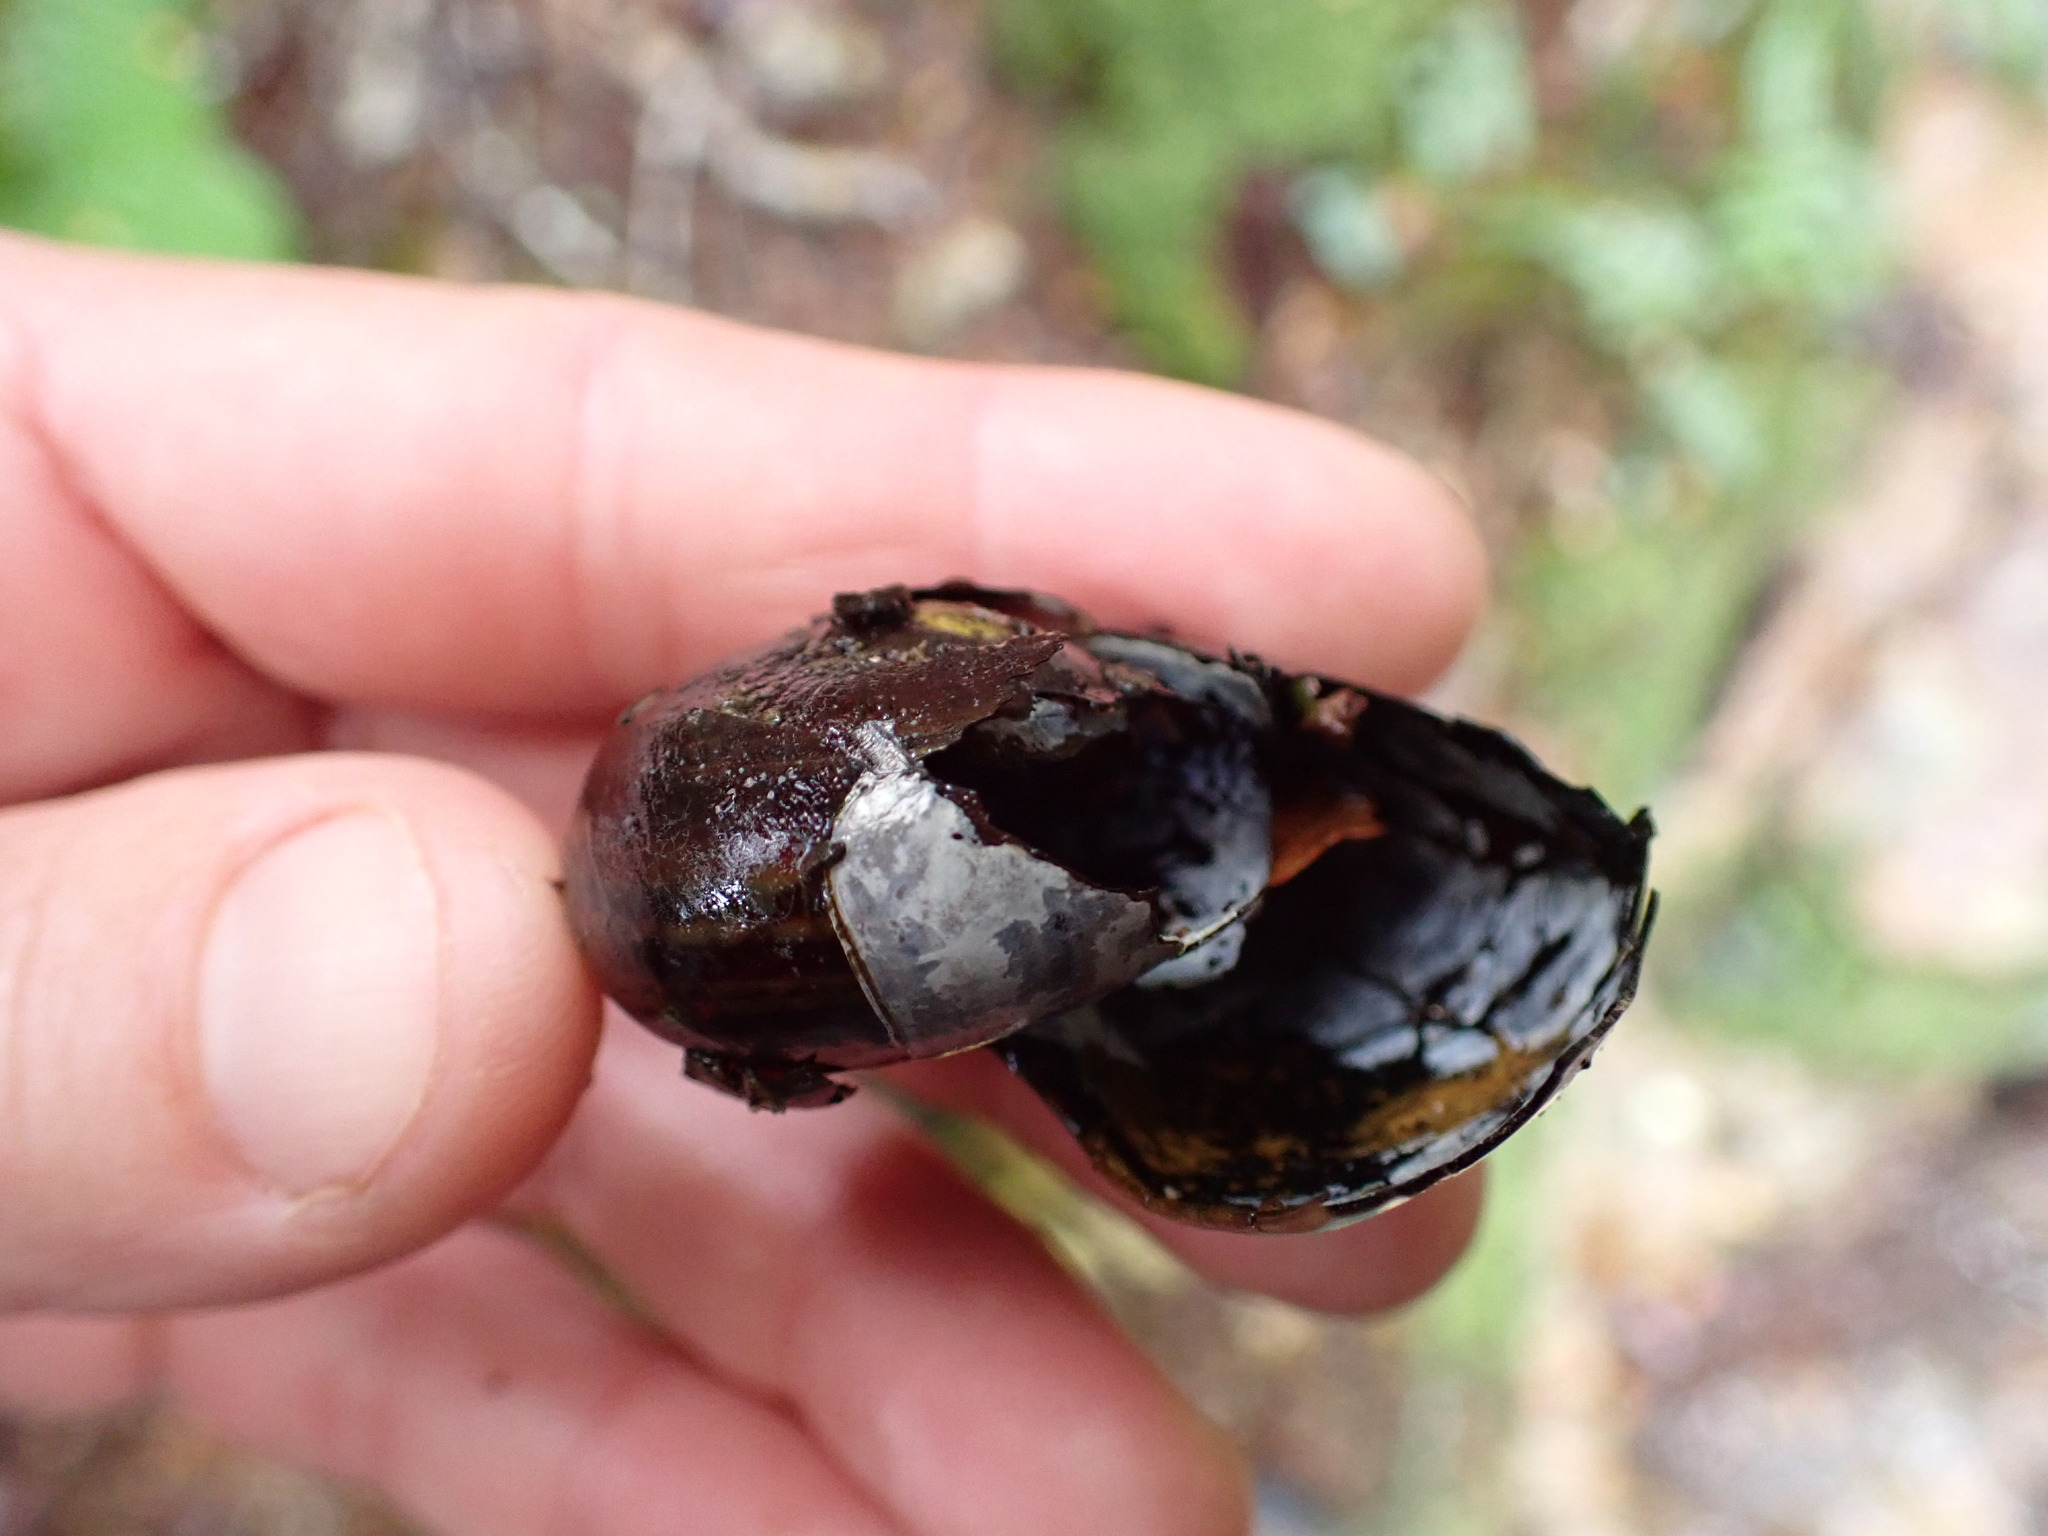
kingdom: Animalia
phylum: Mollusca
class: Gastropoda
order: Stylommatophora
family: Rhytididae
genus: Powelliphanta
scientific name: Powelliphanta hochstetteri
